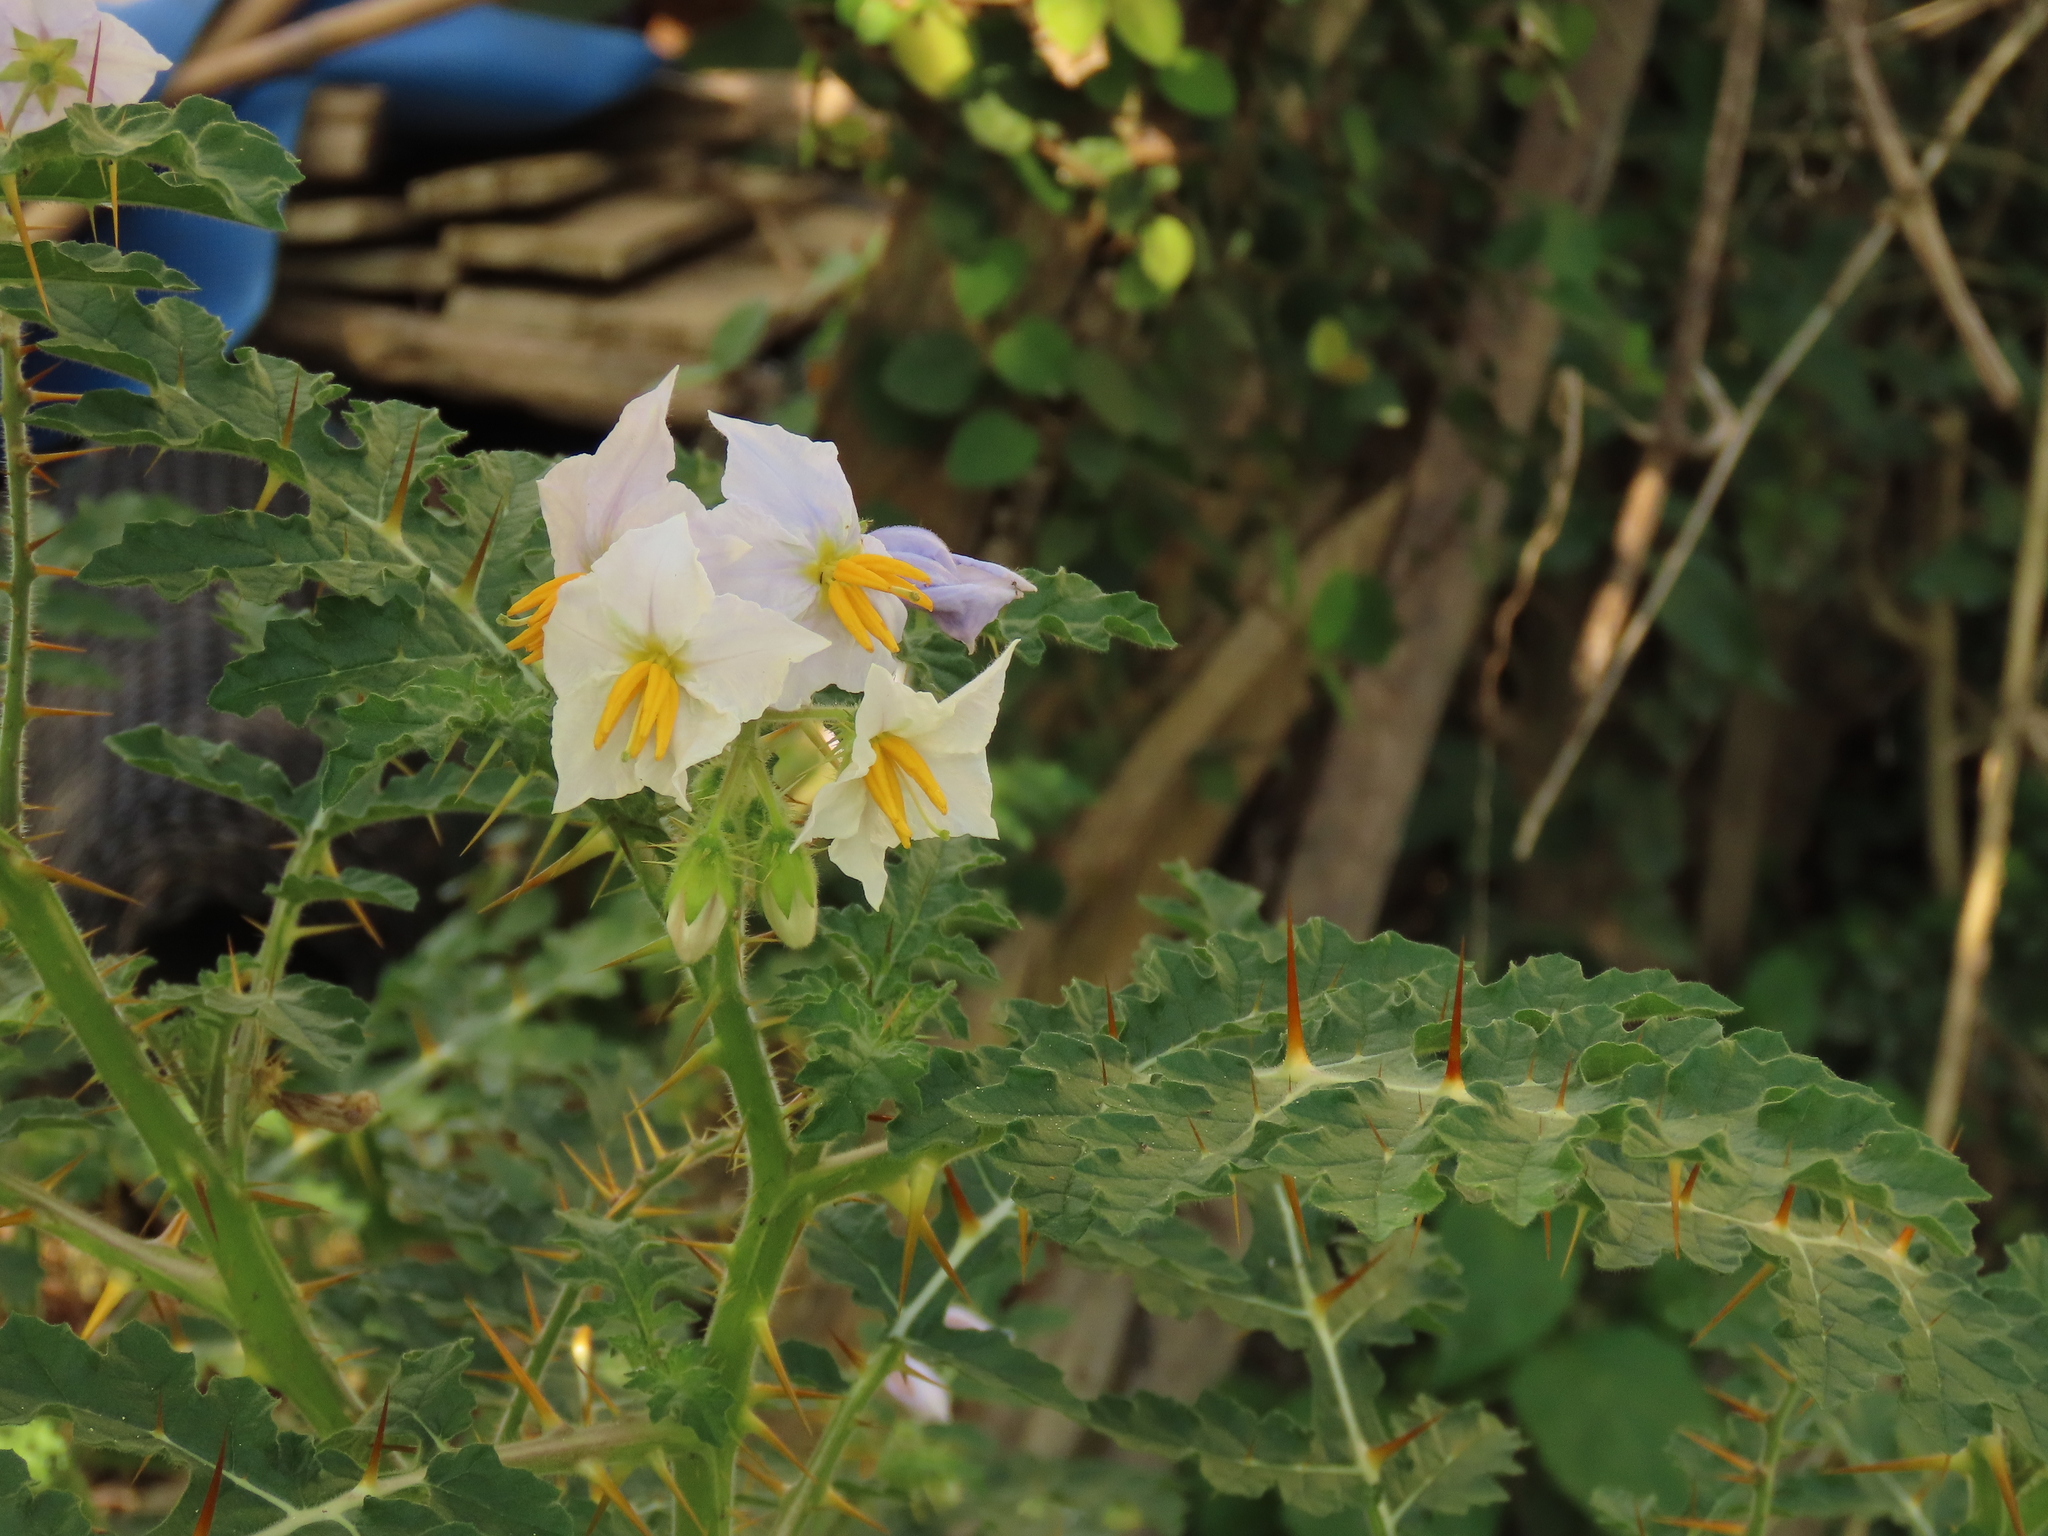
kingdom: Plantae
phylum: Tracheophyta
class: Magnoliopsida
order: Solanales
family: Solanaceae
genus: Solanum
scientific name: Solanum sisymbriifolium
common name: Red buffalo-bur
